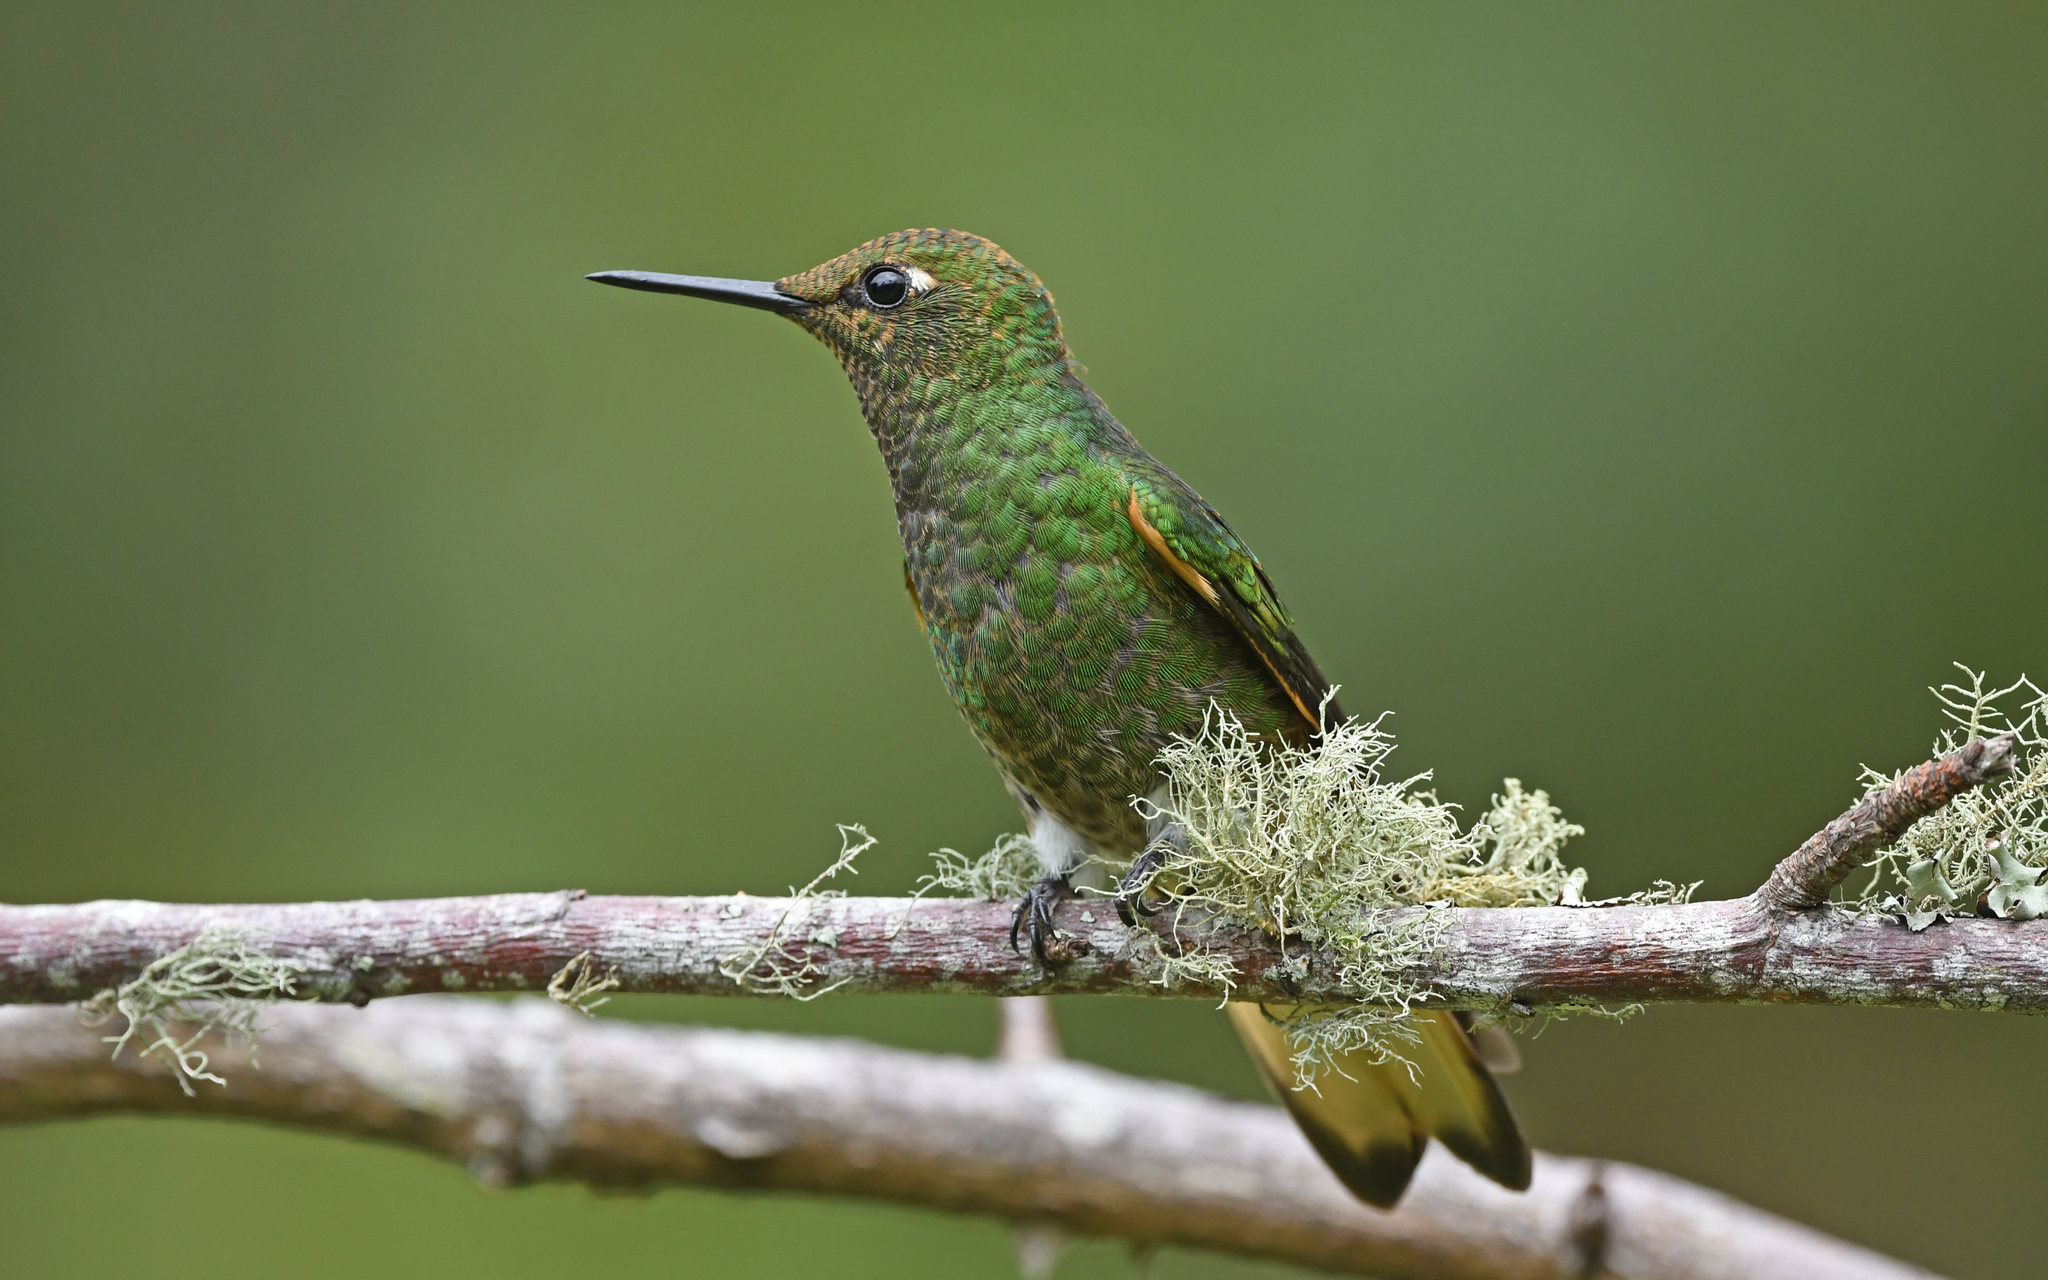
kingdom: Animalia
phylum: Chordata
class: Aves
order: Apodiformes
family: Trochilidae
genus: Boissonneaua
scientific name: Boissonneaua flavescens
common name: Buff-tailed coronet
